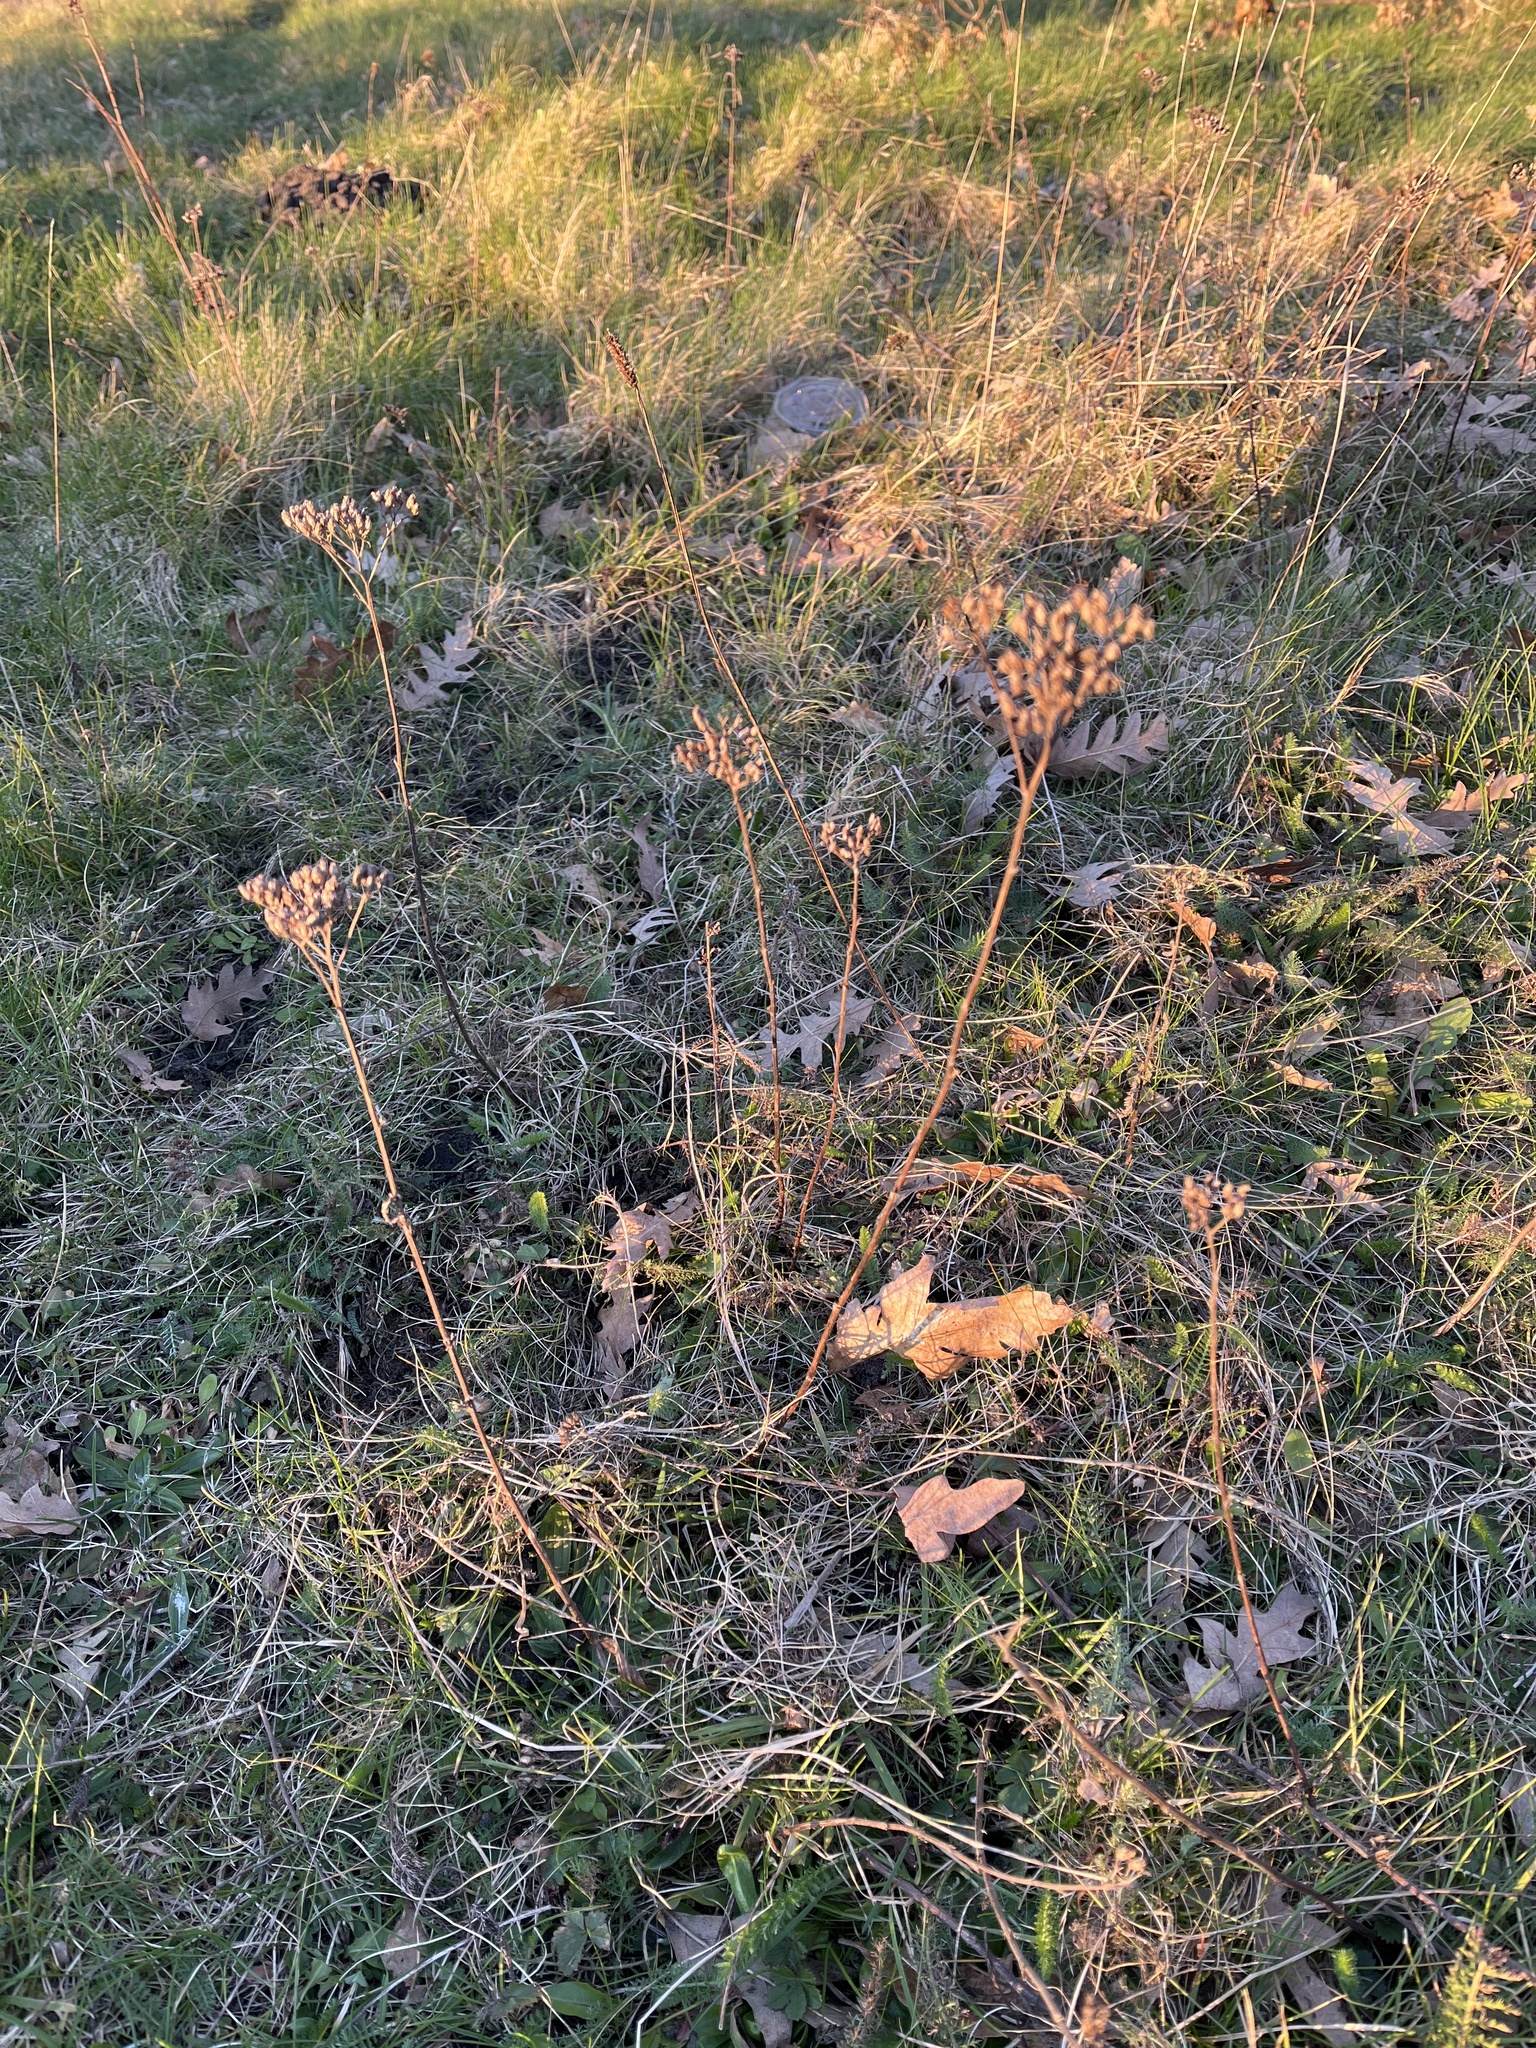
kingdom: Plantae
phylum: Tracheophyta
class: Magnoliopsida
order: Asterales
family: Asteraceae
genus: Achillea
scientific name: Achillea millefolium
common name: Yarrow
